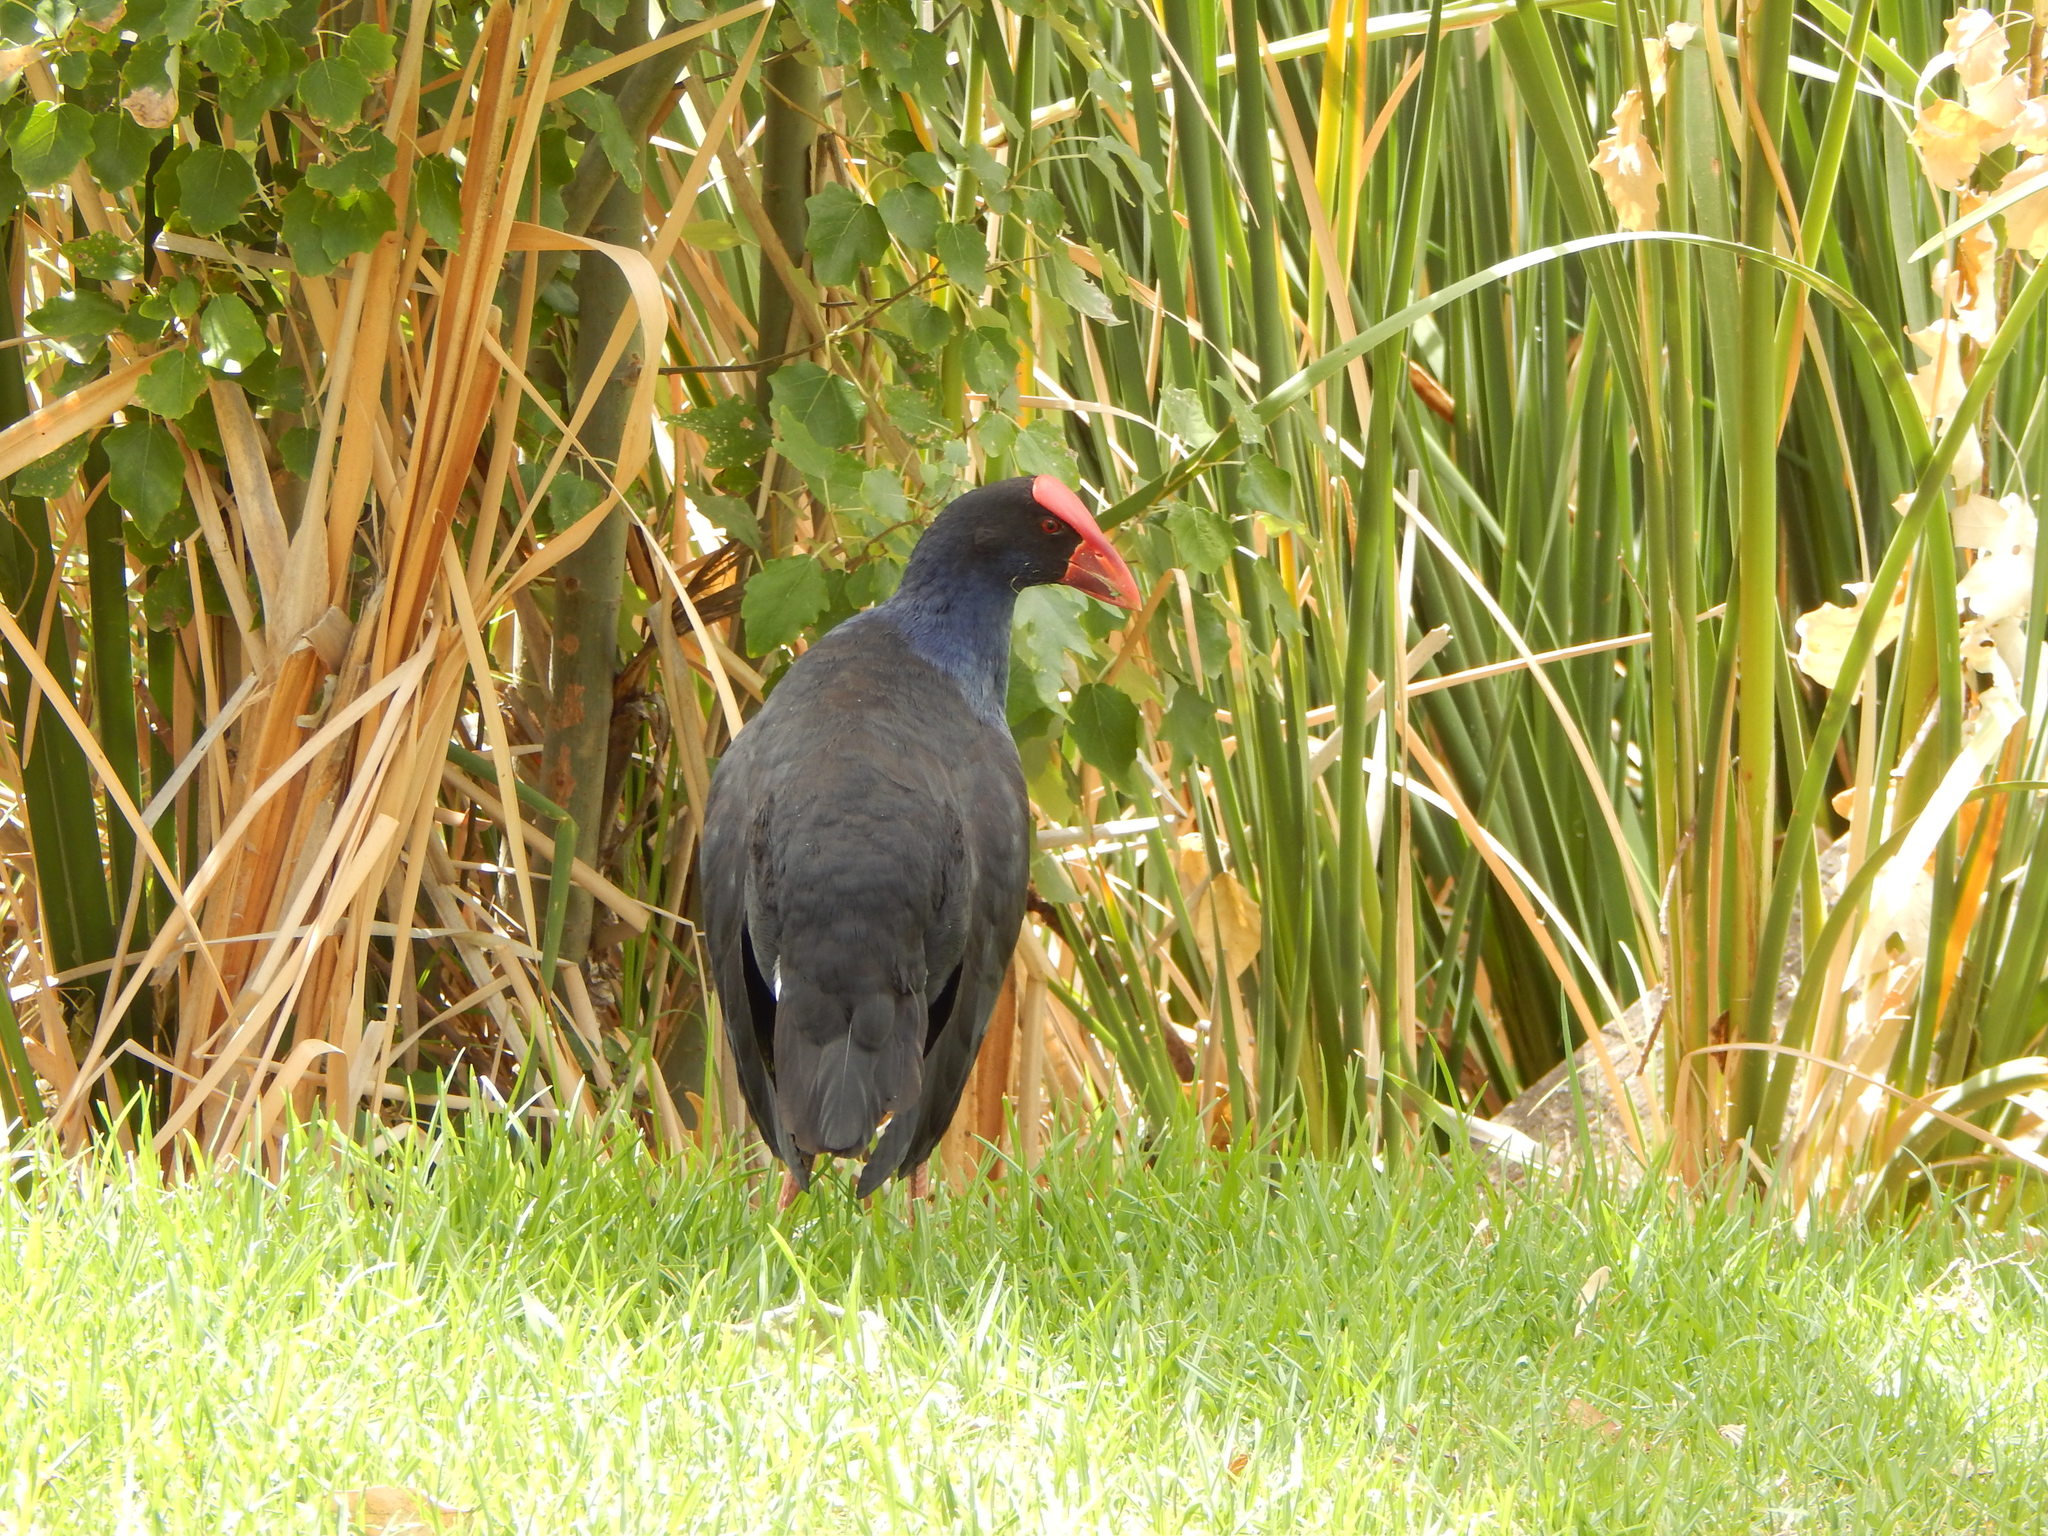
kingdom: Animalia
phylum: Chordata
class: Aves
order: Gruiformes
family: Rallidae
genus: Porphyrio
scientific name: Porphyrio melanotus
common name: Australasian swamphen
